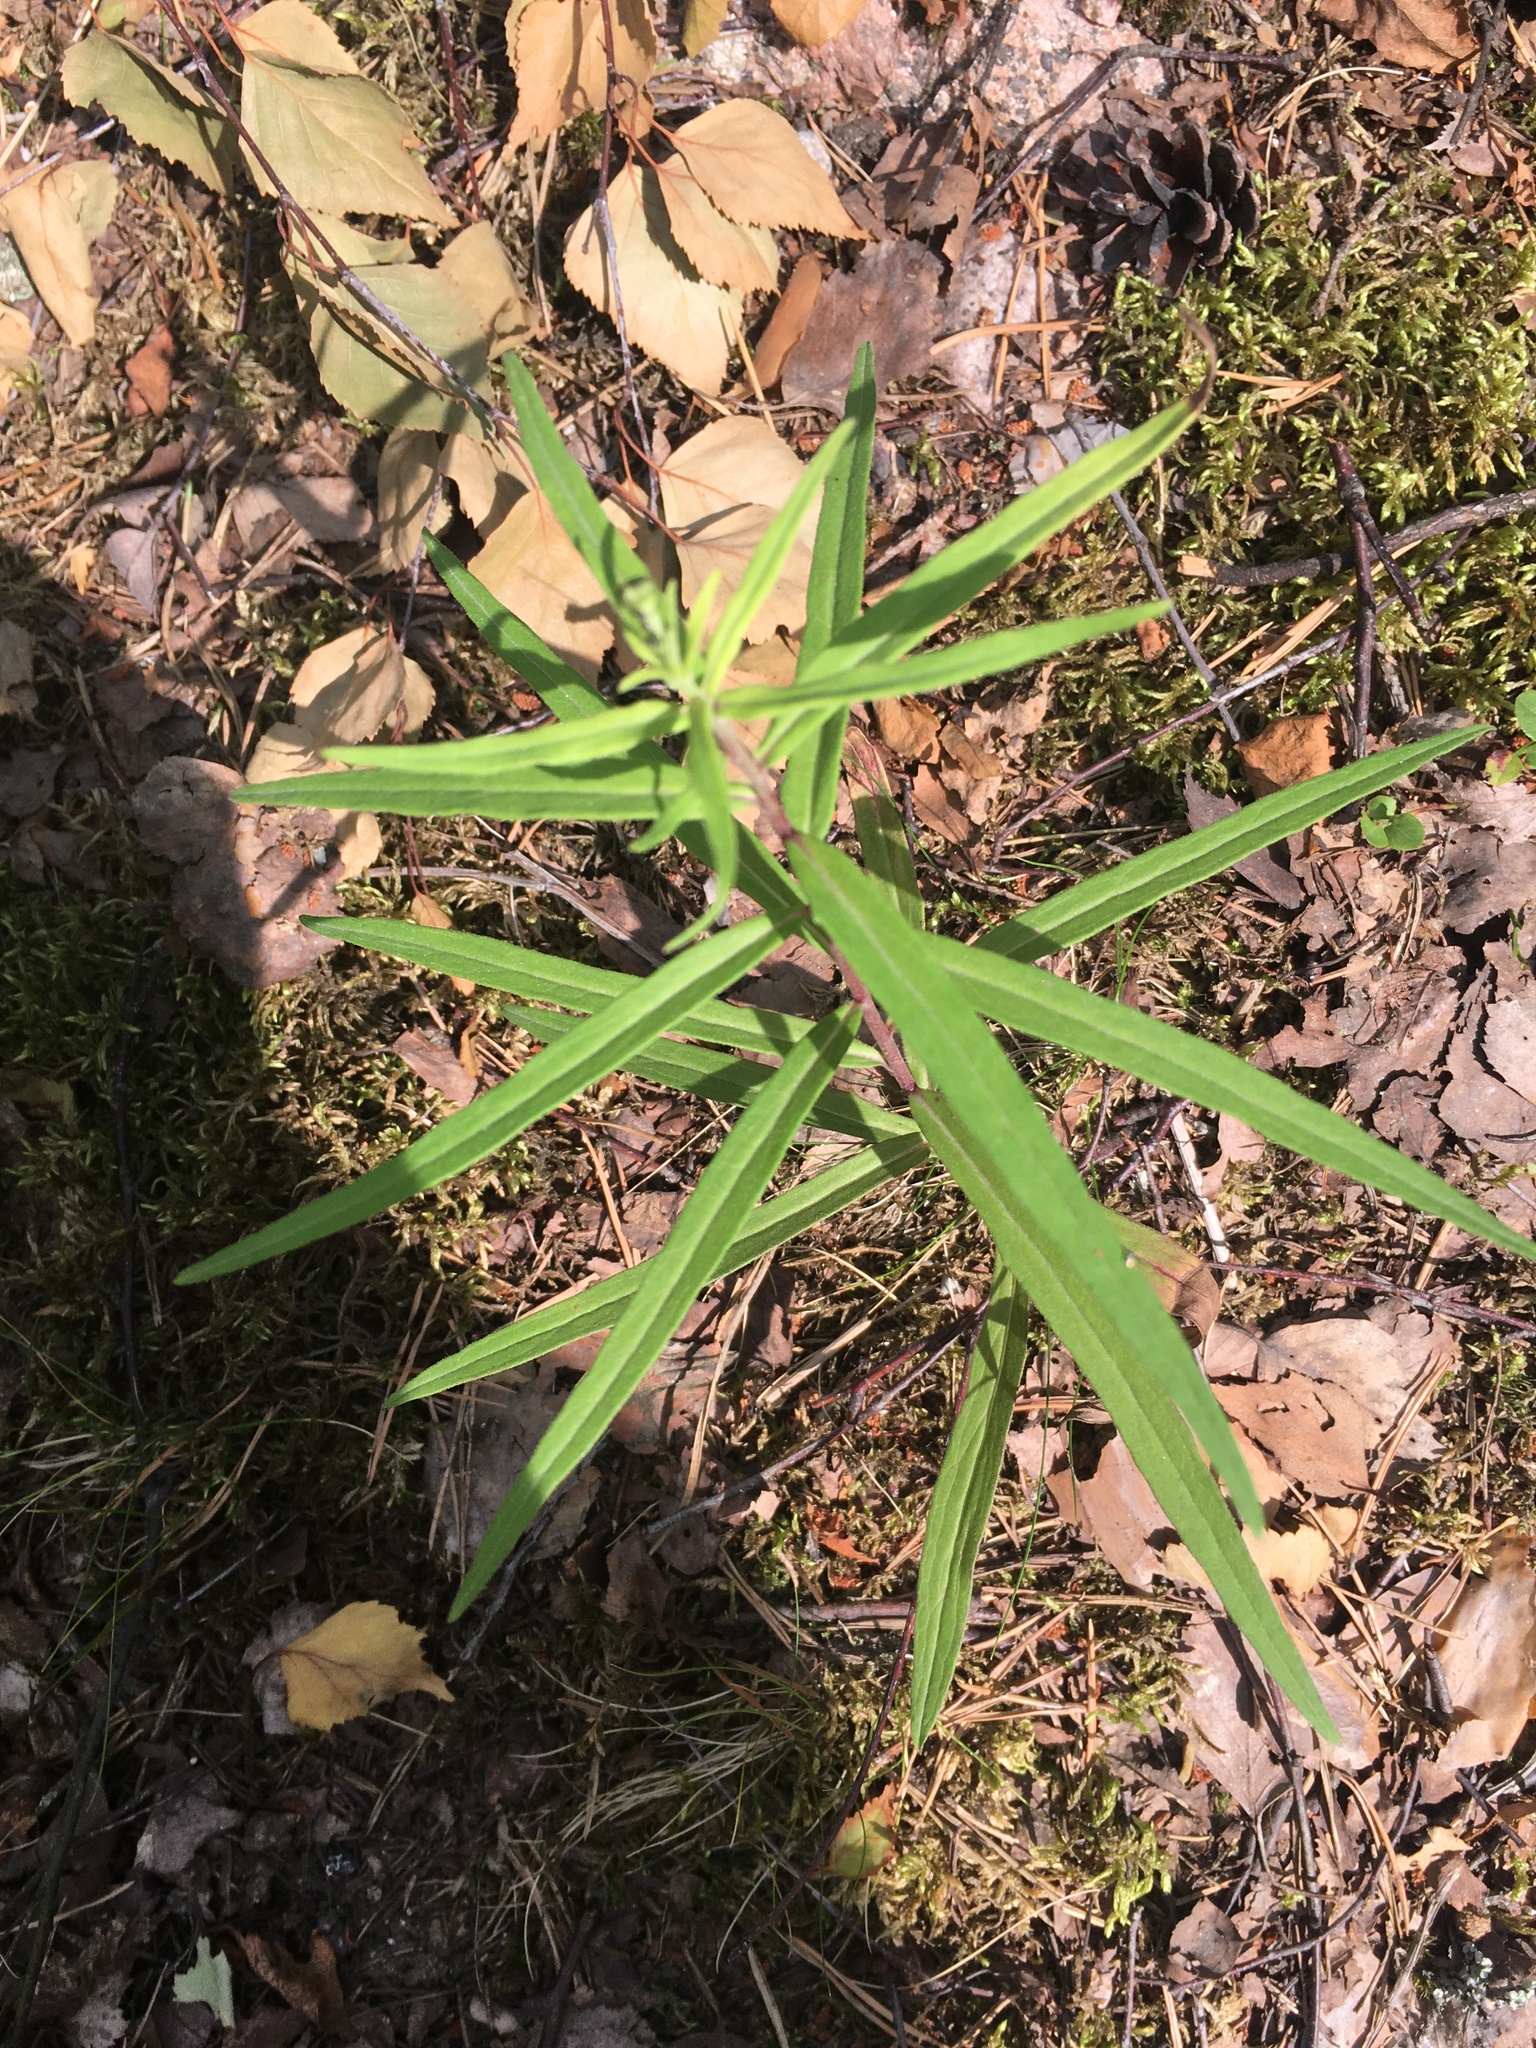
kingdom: Plantae
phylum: Tracheophyta
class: Magnoliopsida
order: Asterales
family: Asteraceae
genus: Hieracium
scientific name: Hieracium umbellatum
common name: Northern hawkweed
